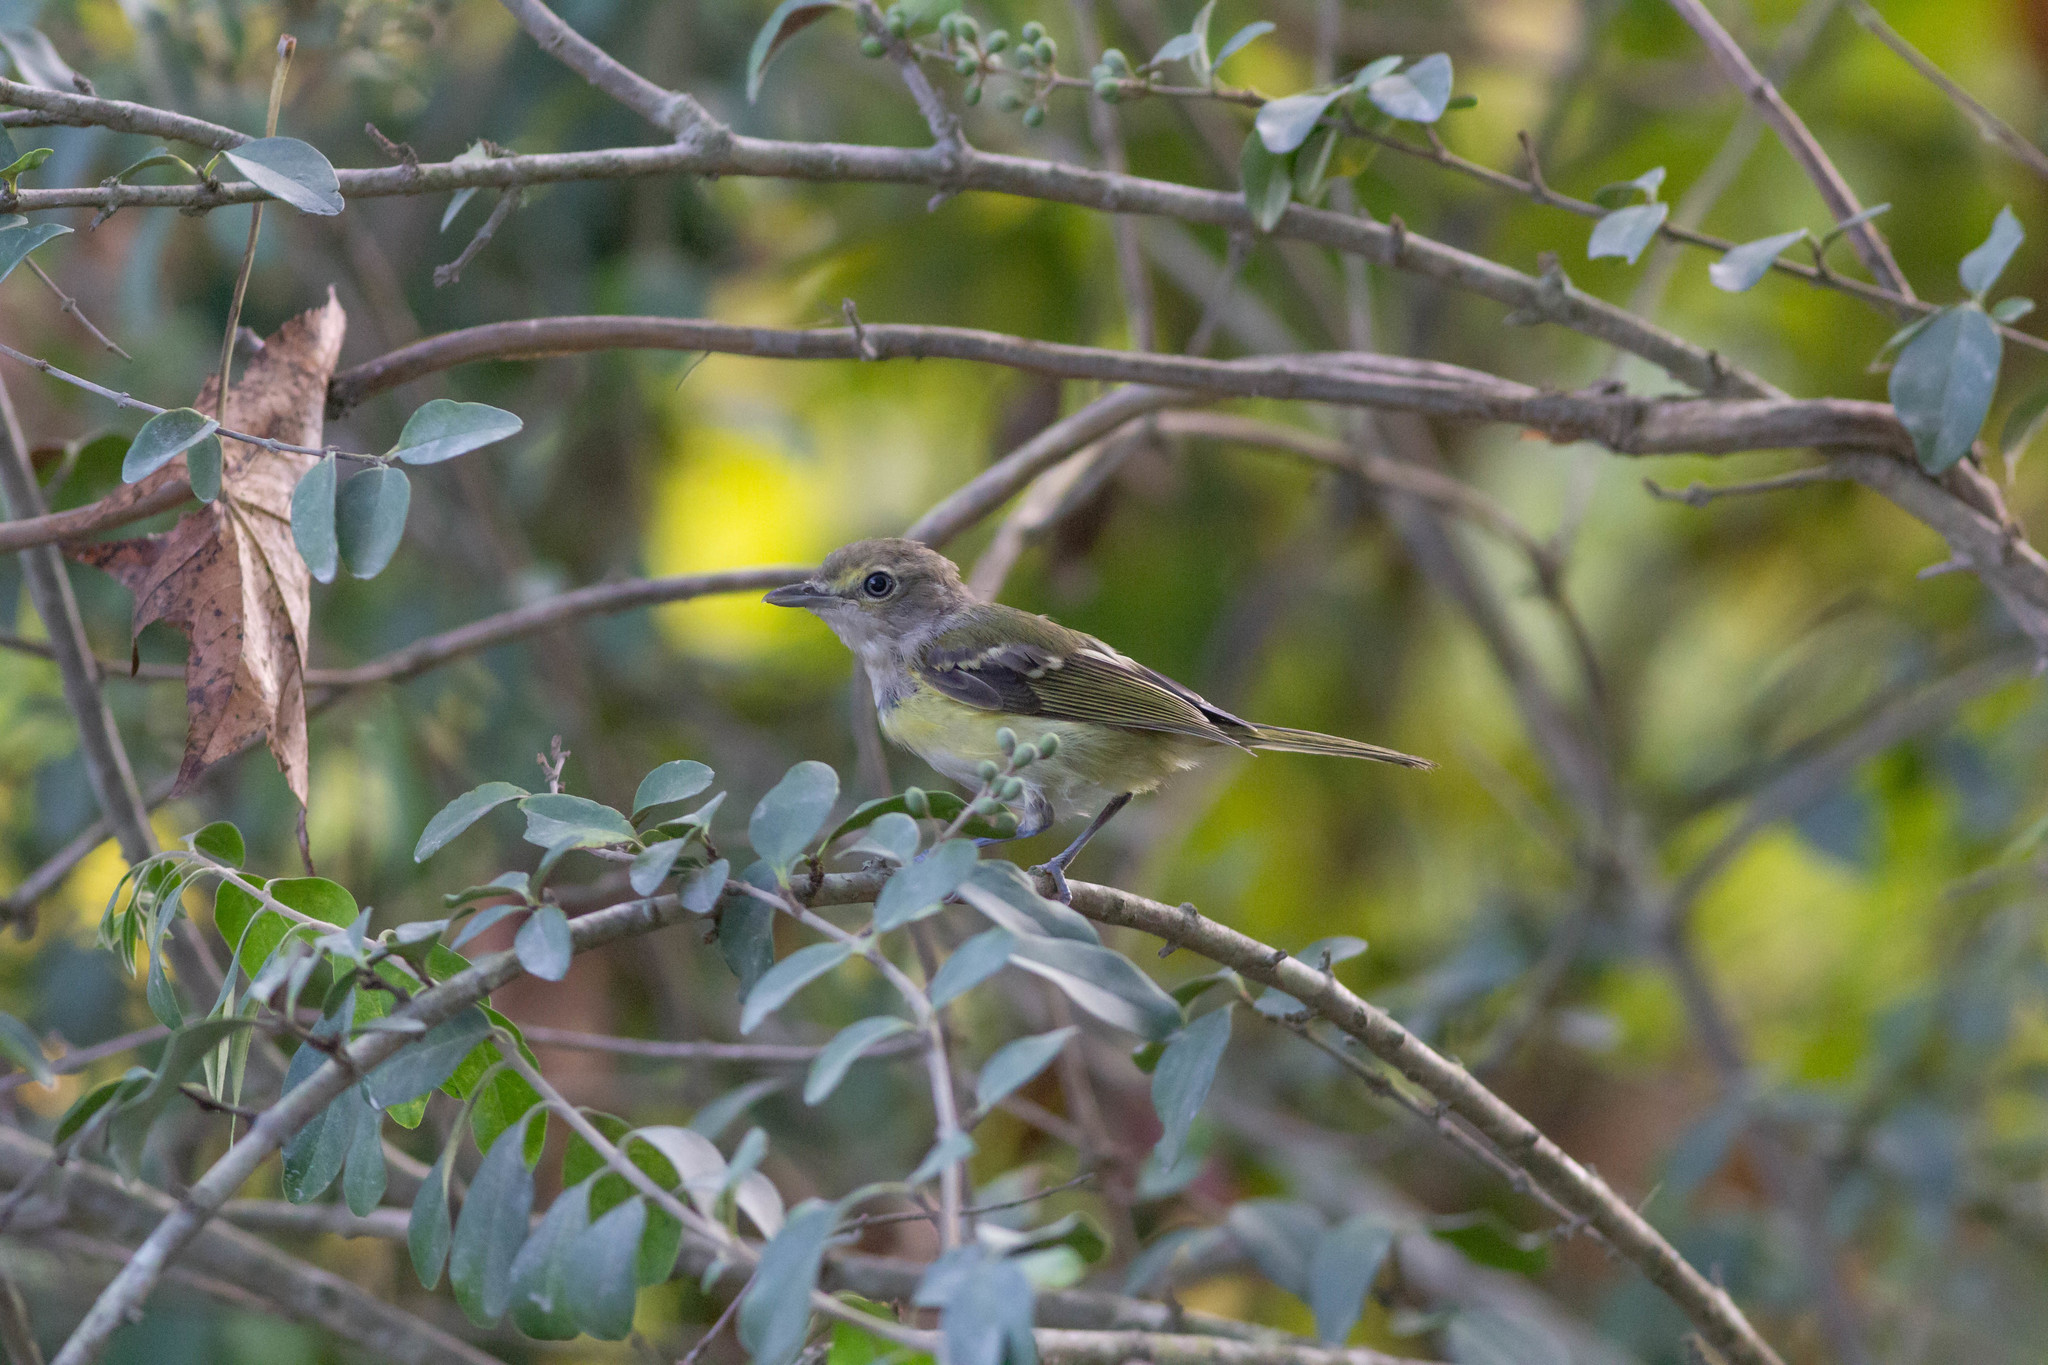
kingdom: Animalia
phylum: Chordata
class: Aves
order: Passeriformes
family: Vireonidae
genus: Vireo
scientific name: Vireo griseus
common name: White-eyed vireo
